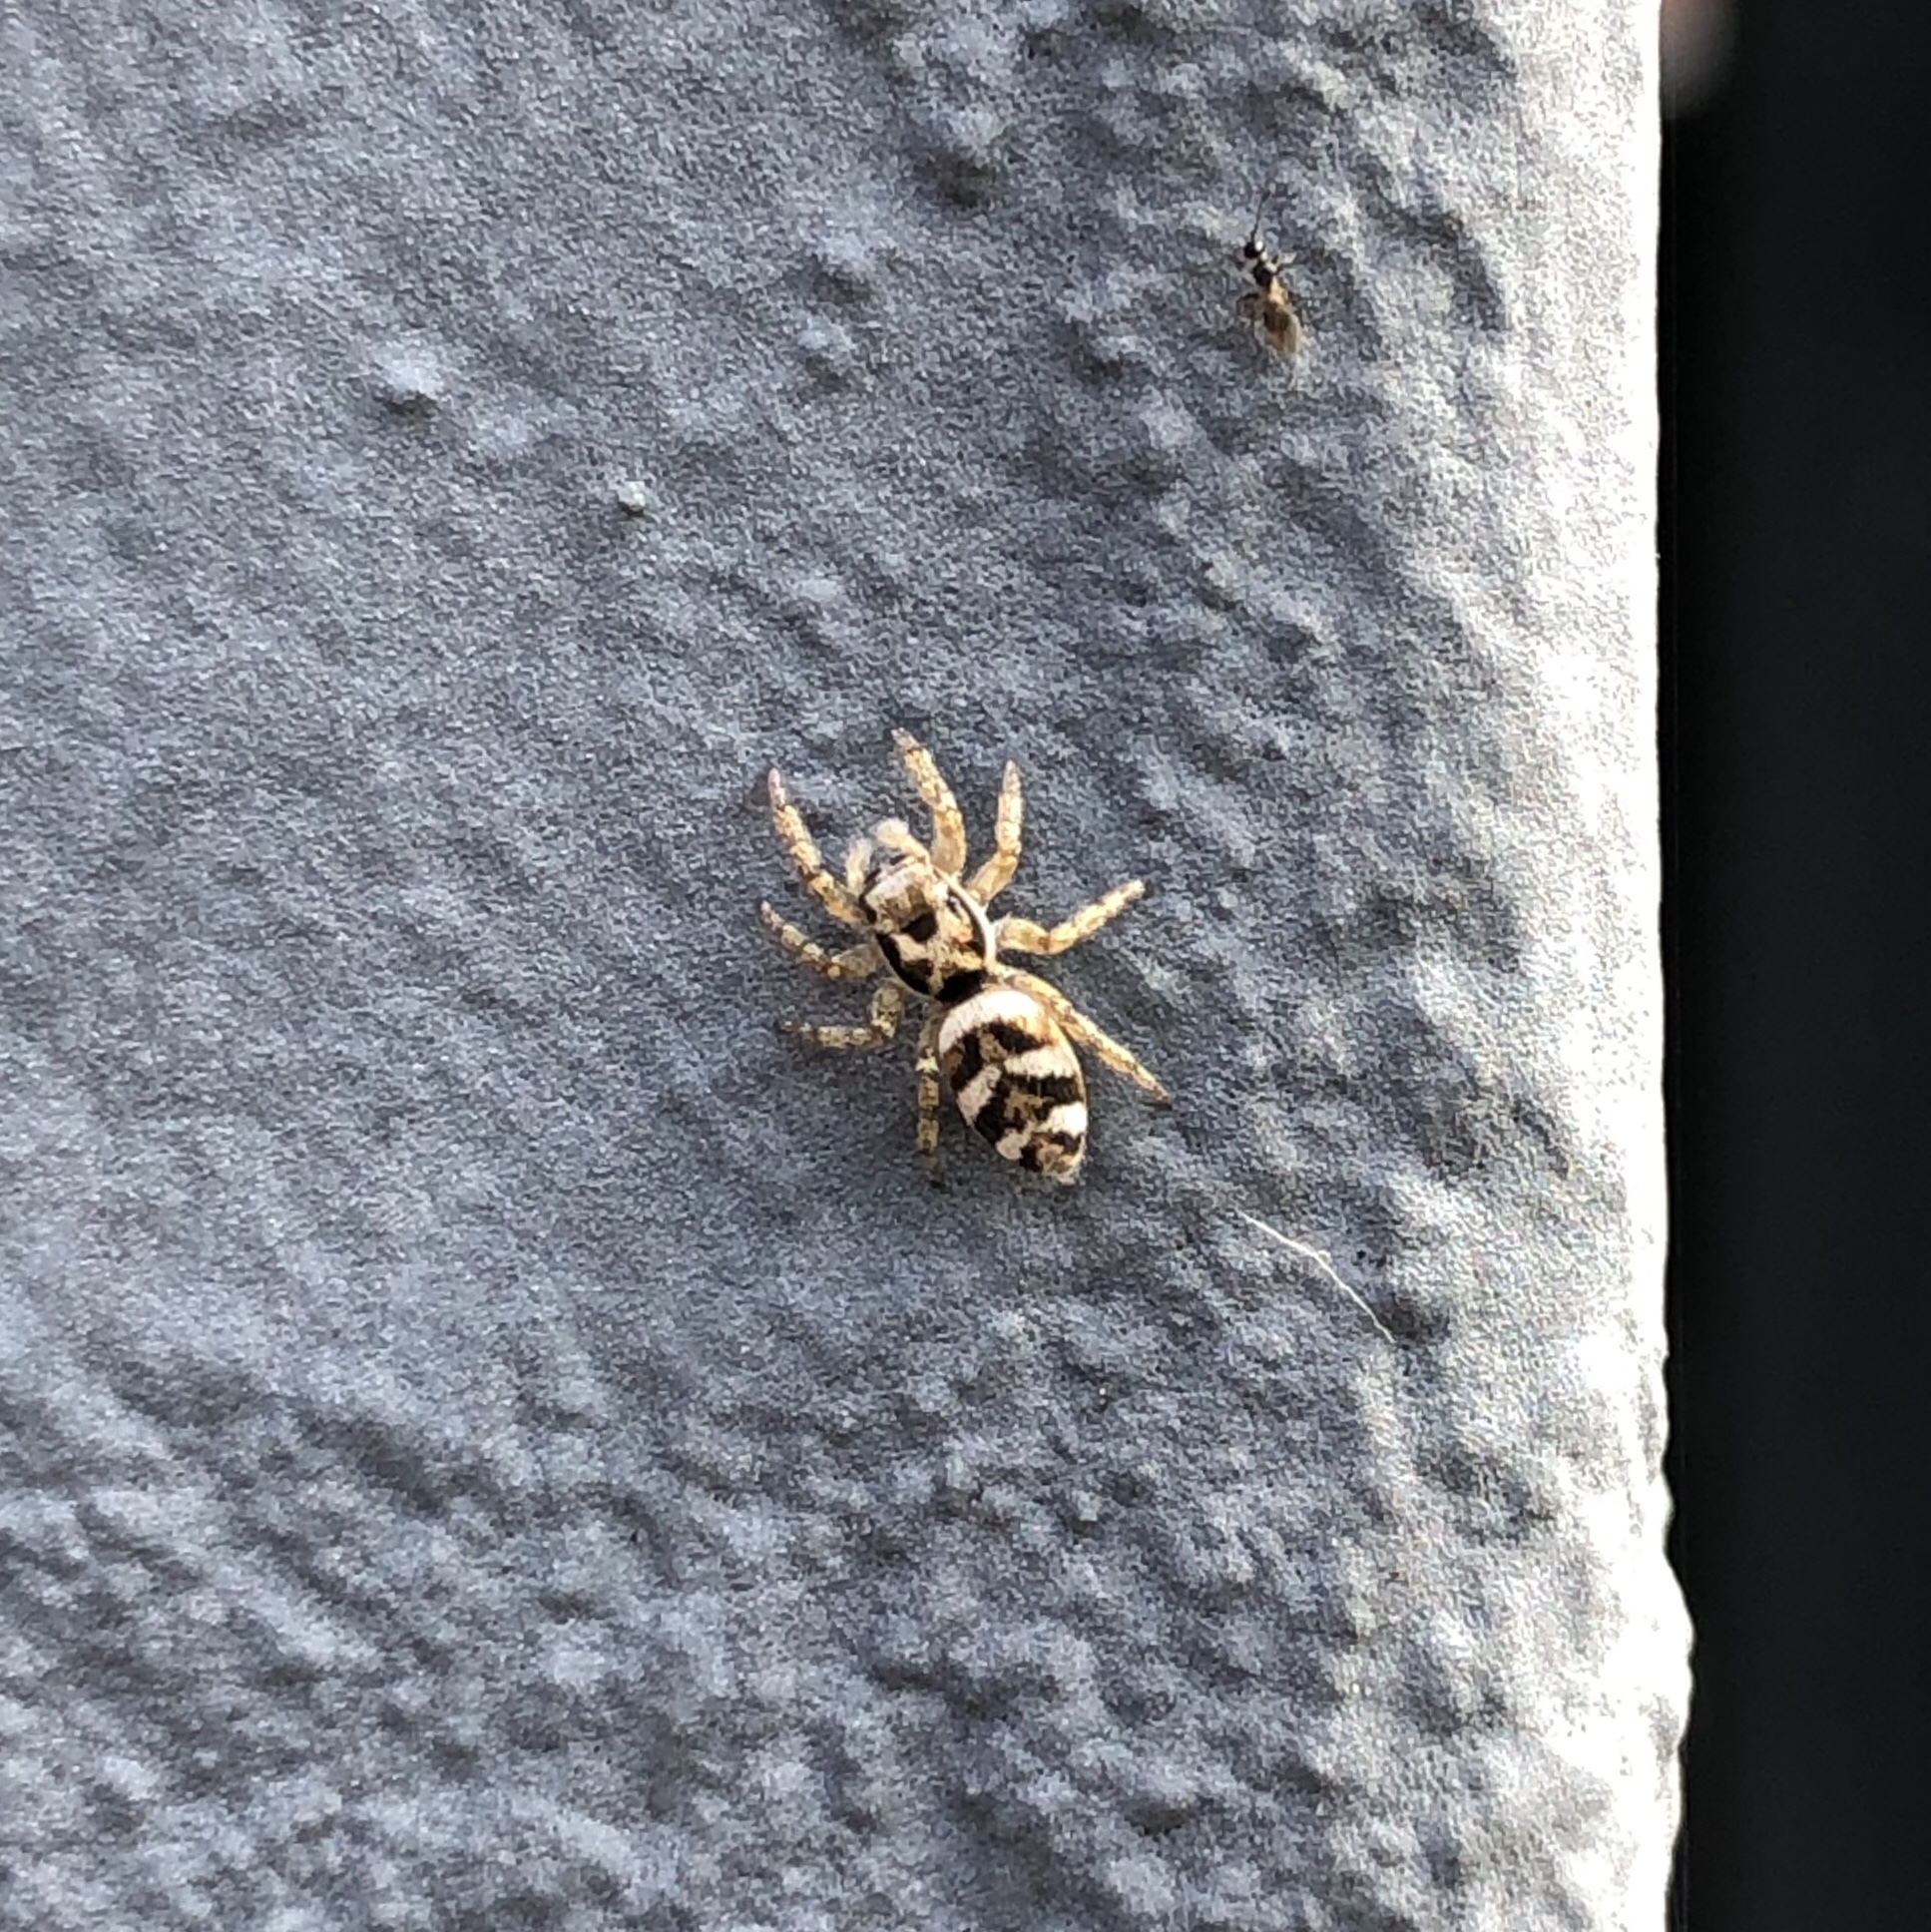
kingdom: Animalia
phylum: Arthropoda
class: Arachnida
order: Araneae
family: Salticidae
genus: Salticus
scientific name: Salticus scenicus
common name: Zebra jumper
